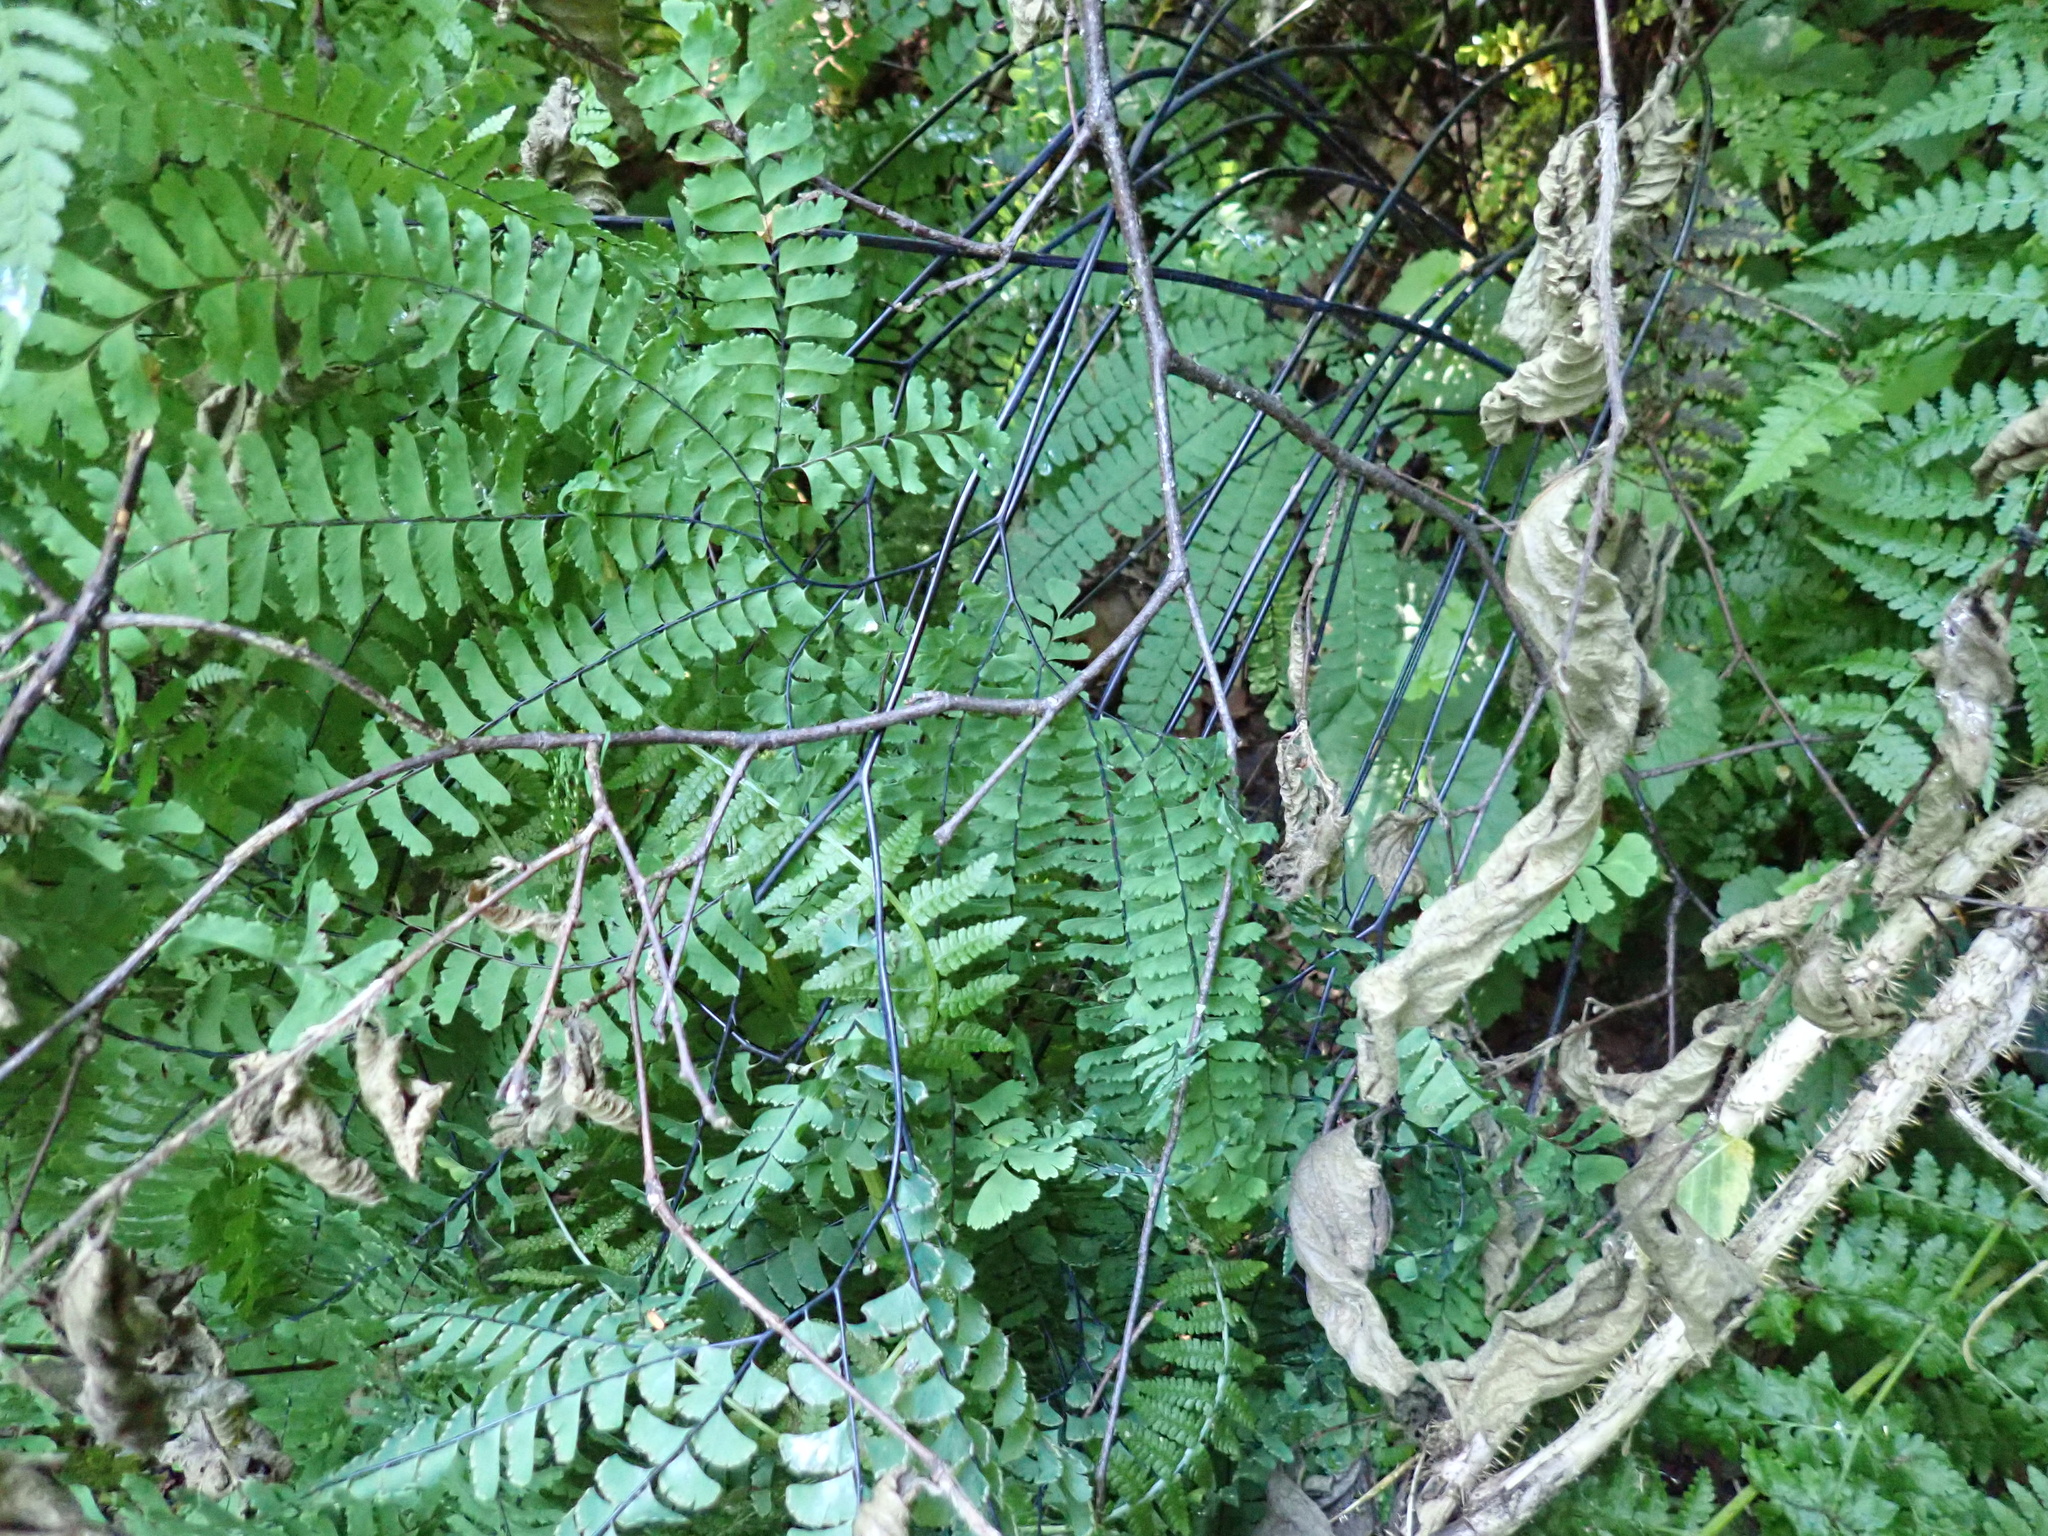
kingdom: Plantae
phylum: Tracheophyta
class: Polypodiopsida
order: Polypodiales
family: Pteridaceae
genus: Adiantum
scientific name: Adiantum aleuticum
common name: Aleutian maidenhair fern
